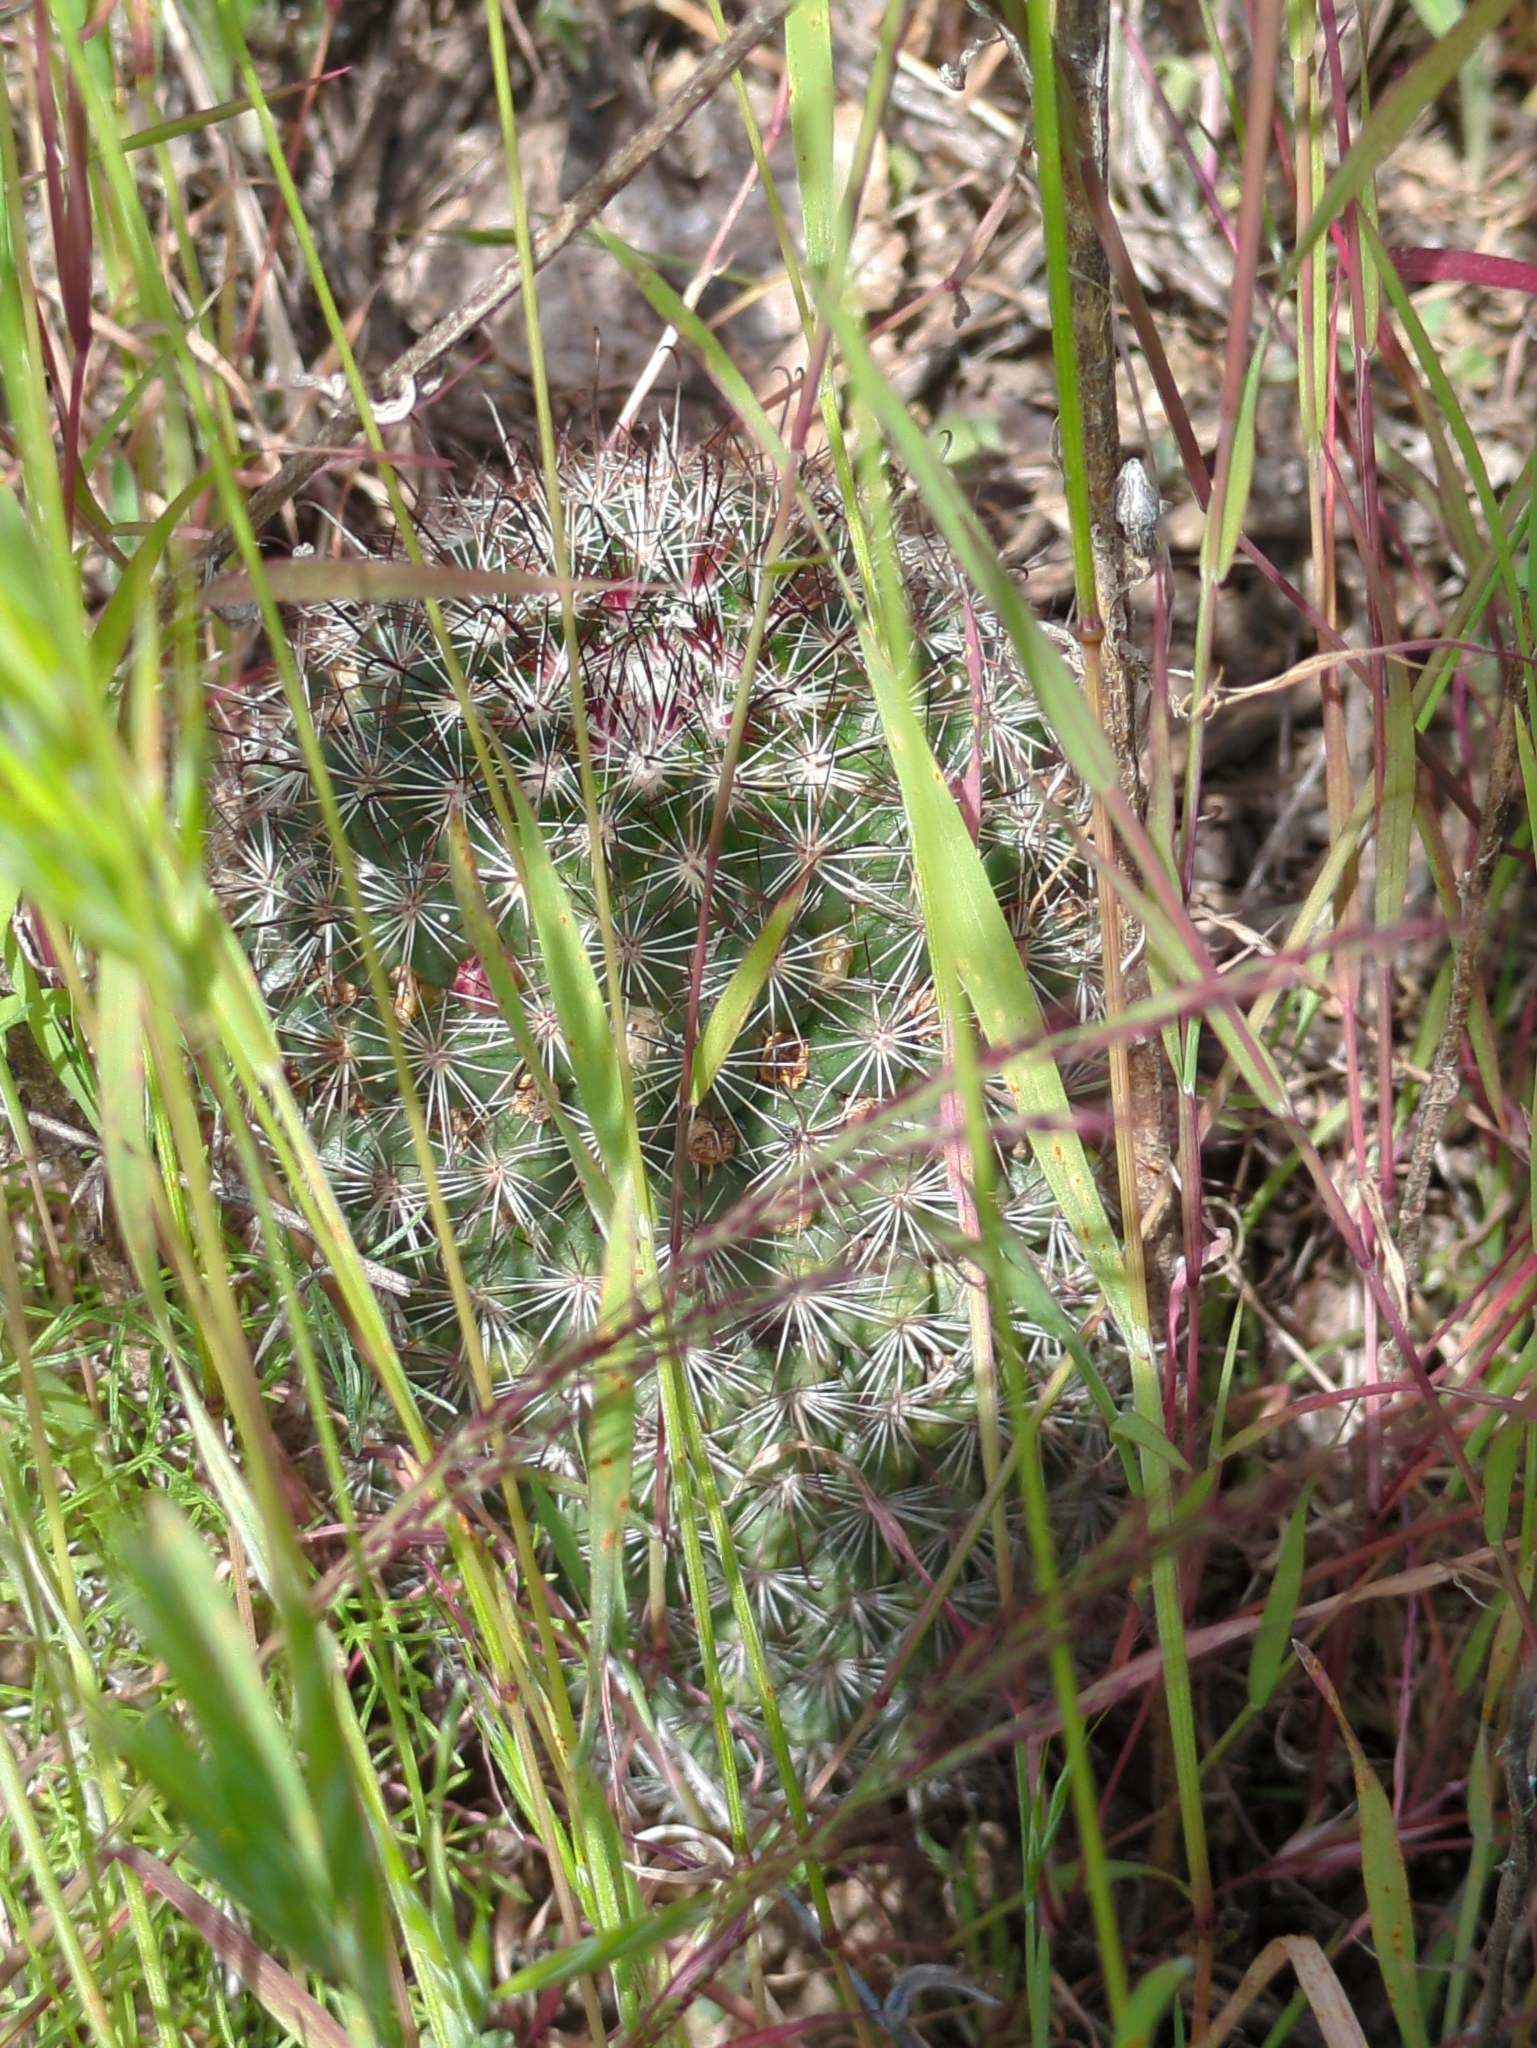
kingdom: Plantae
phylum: Tracheophyta
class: Magnoliopsida
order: Caryophyllales
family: Cactaceae
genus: Cochemiea
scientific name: Cochemiea dioica
